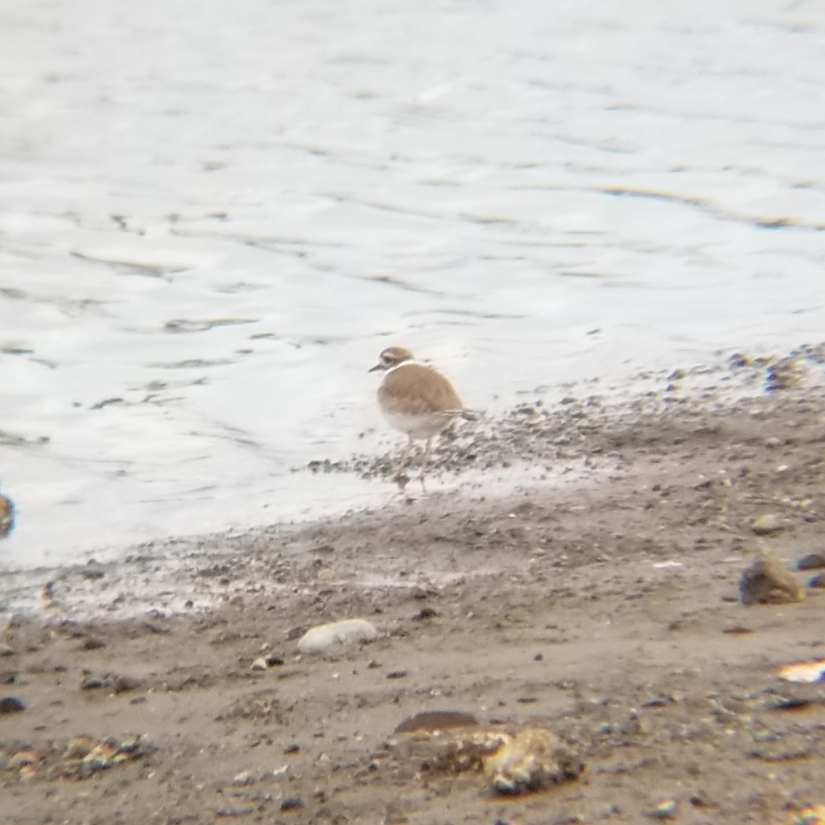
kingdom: Animalia
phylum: Chordata
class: Aves
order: Charadriiformes
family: Charadriidae
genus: Charadrius
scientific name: Charadrius vociferus
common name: Killdeer
